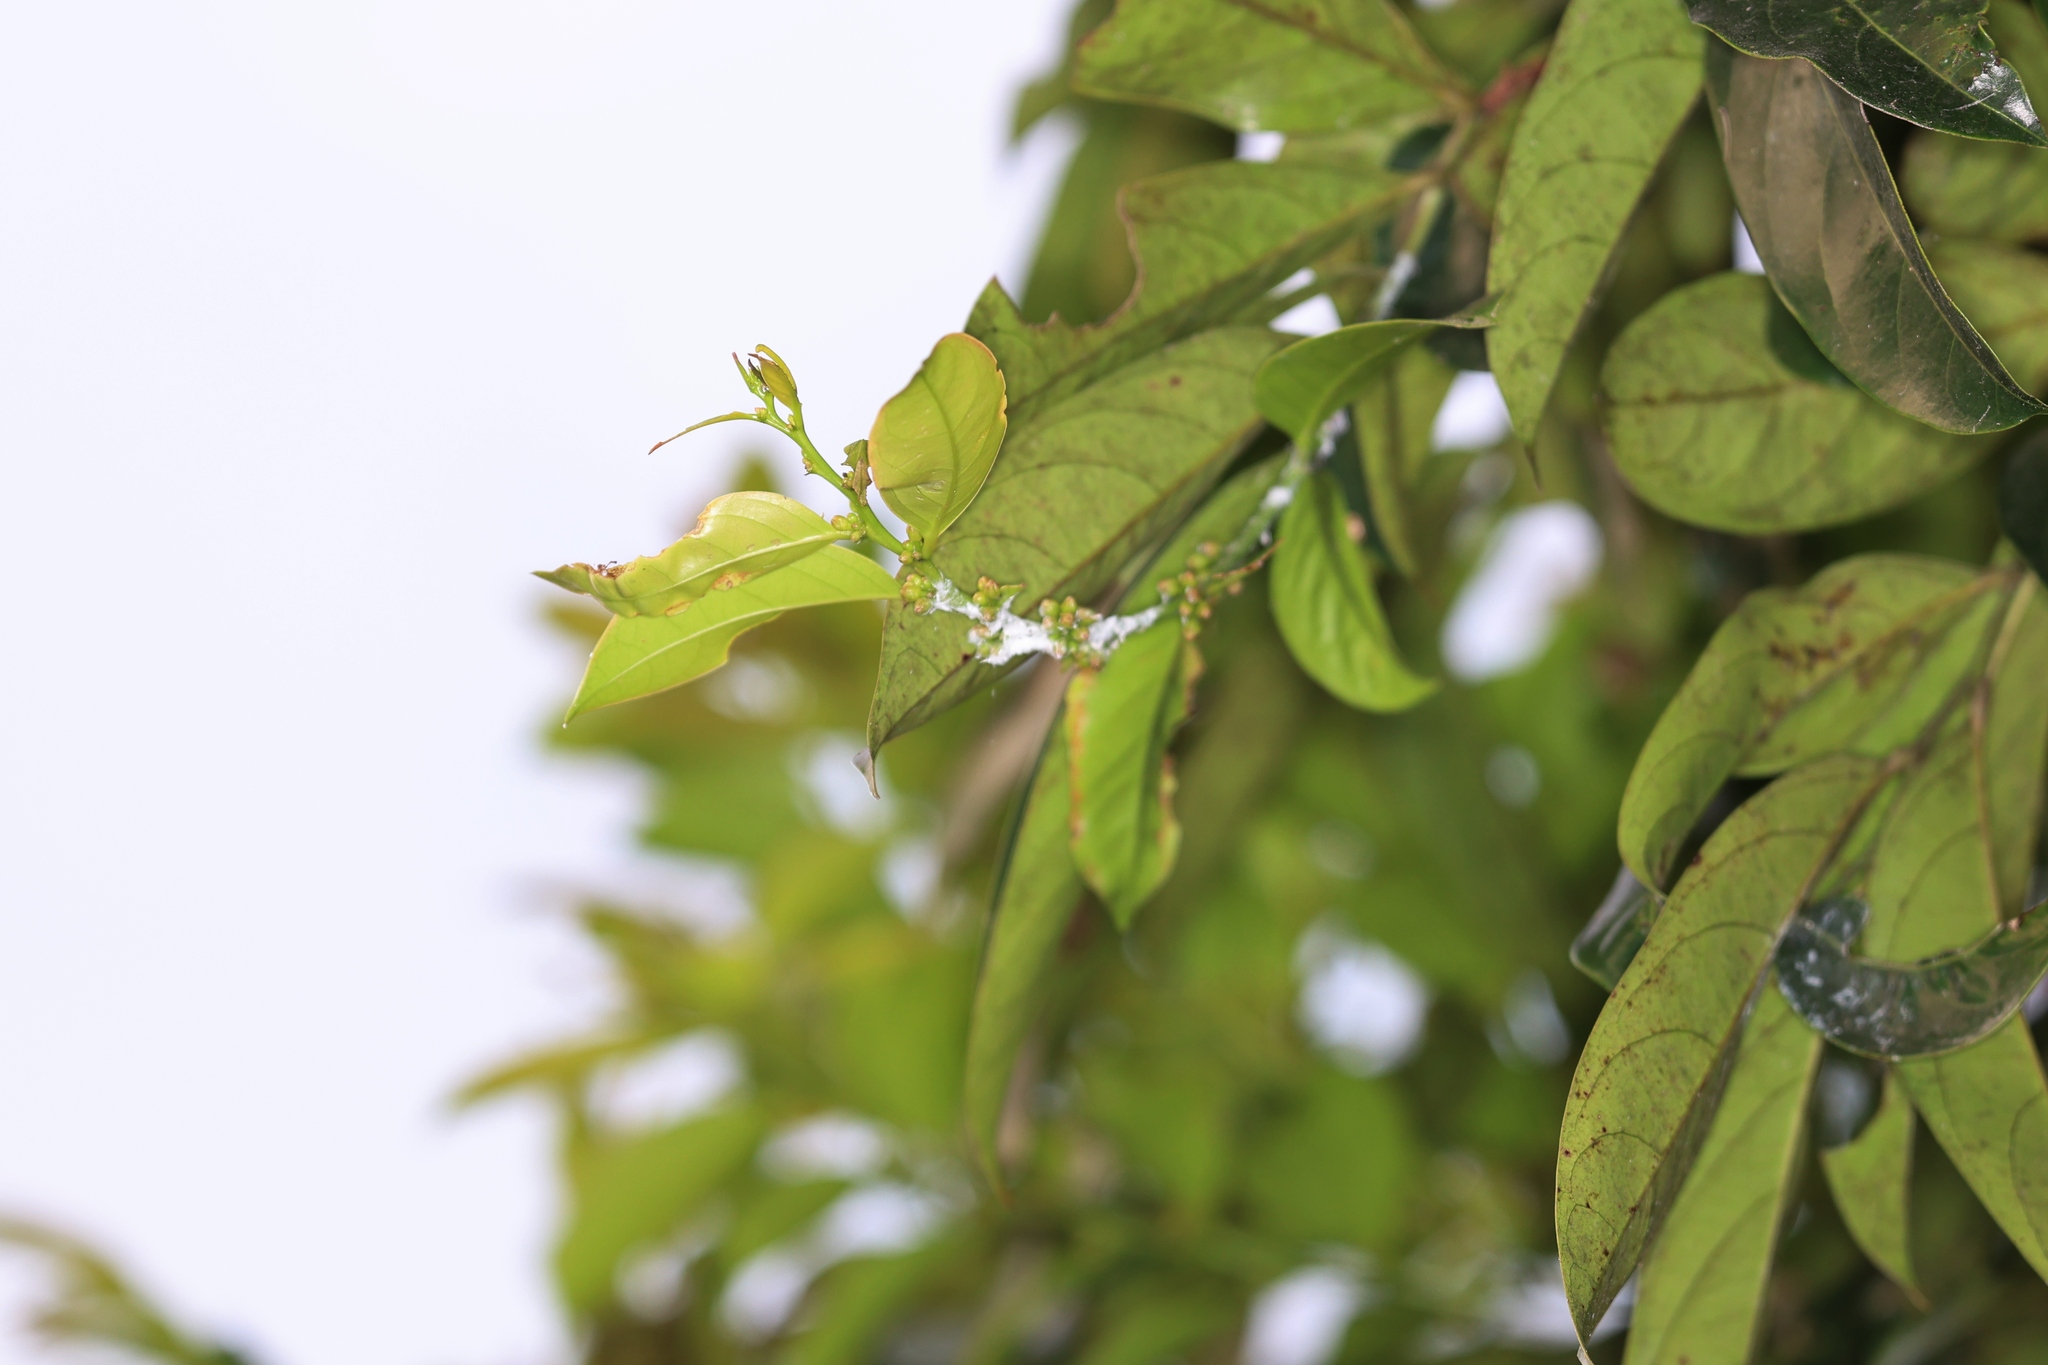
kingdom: Plantae
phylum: Tracheophyta
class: Magnoliopsida
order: Malpighiales
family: Phyllanthaceae
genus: Glochidion
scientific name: Glochidion lanceolarium
